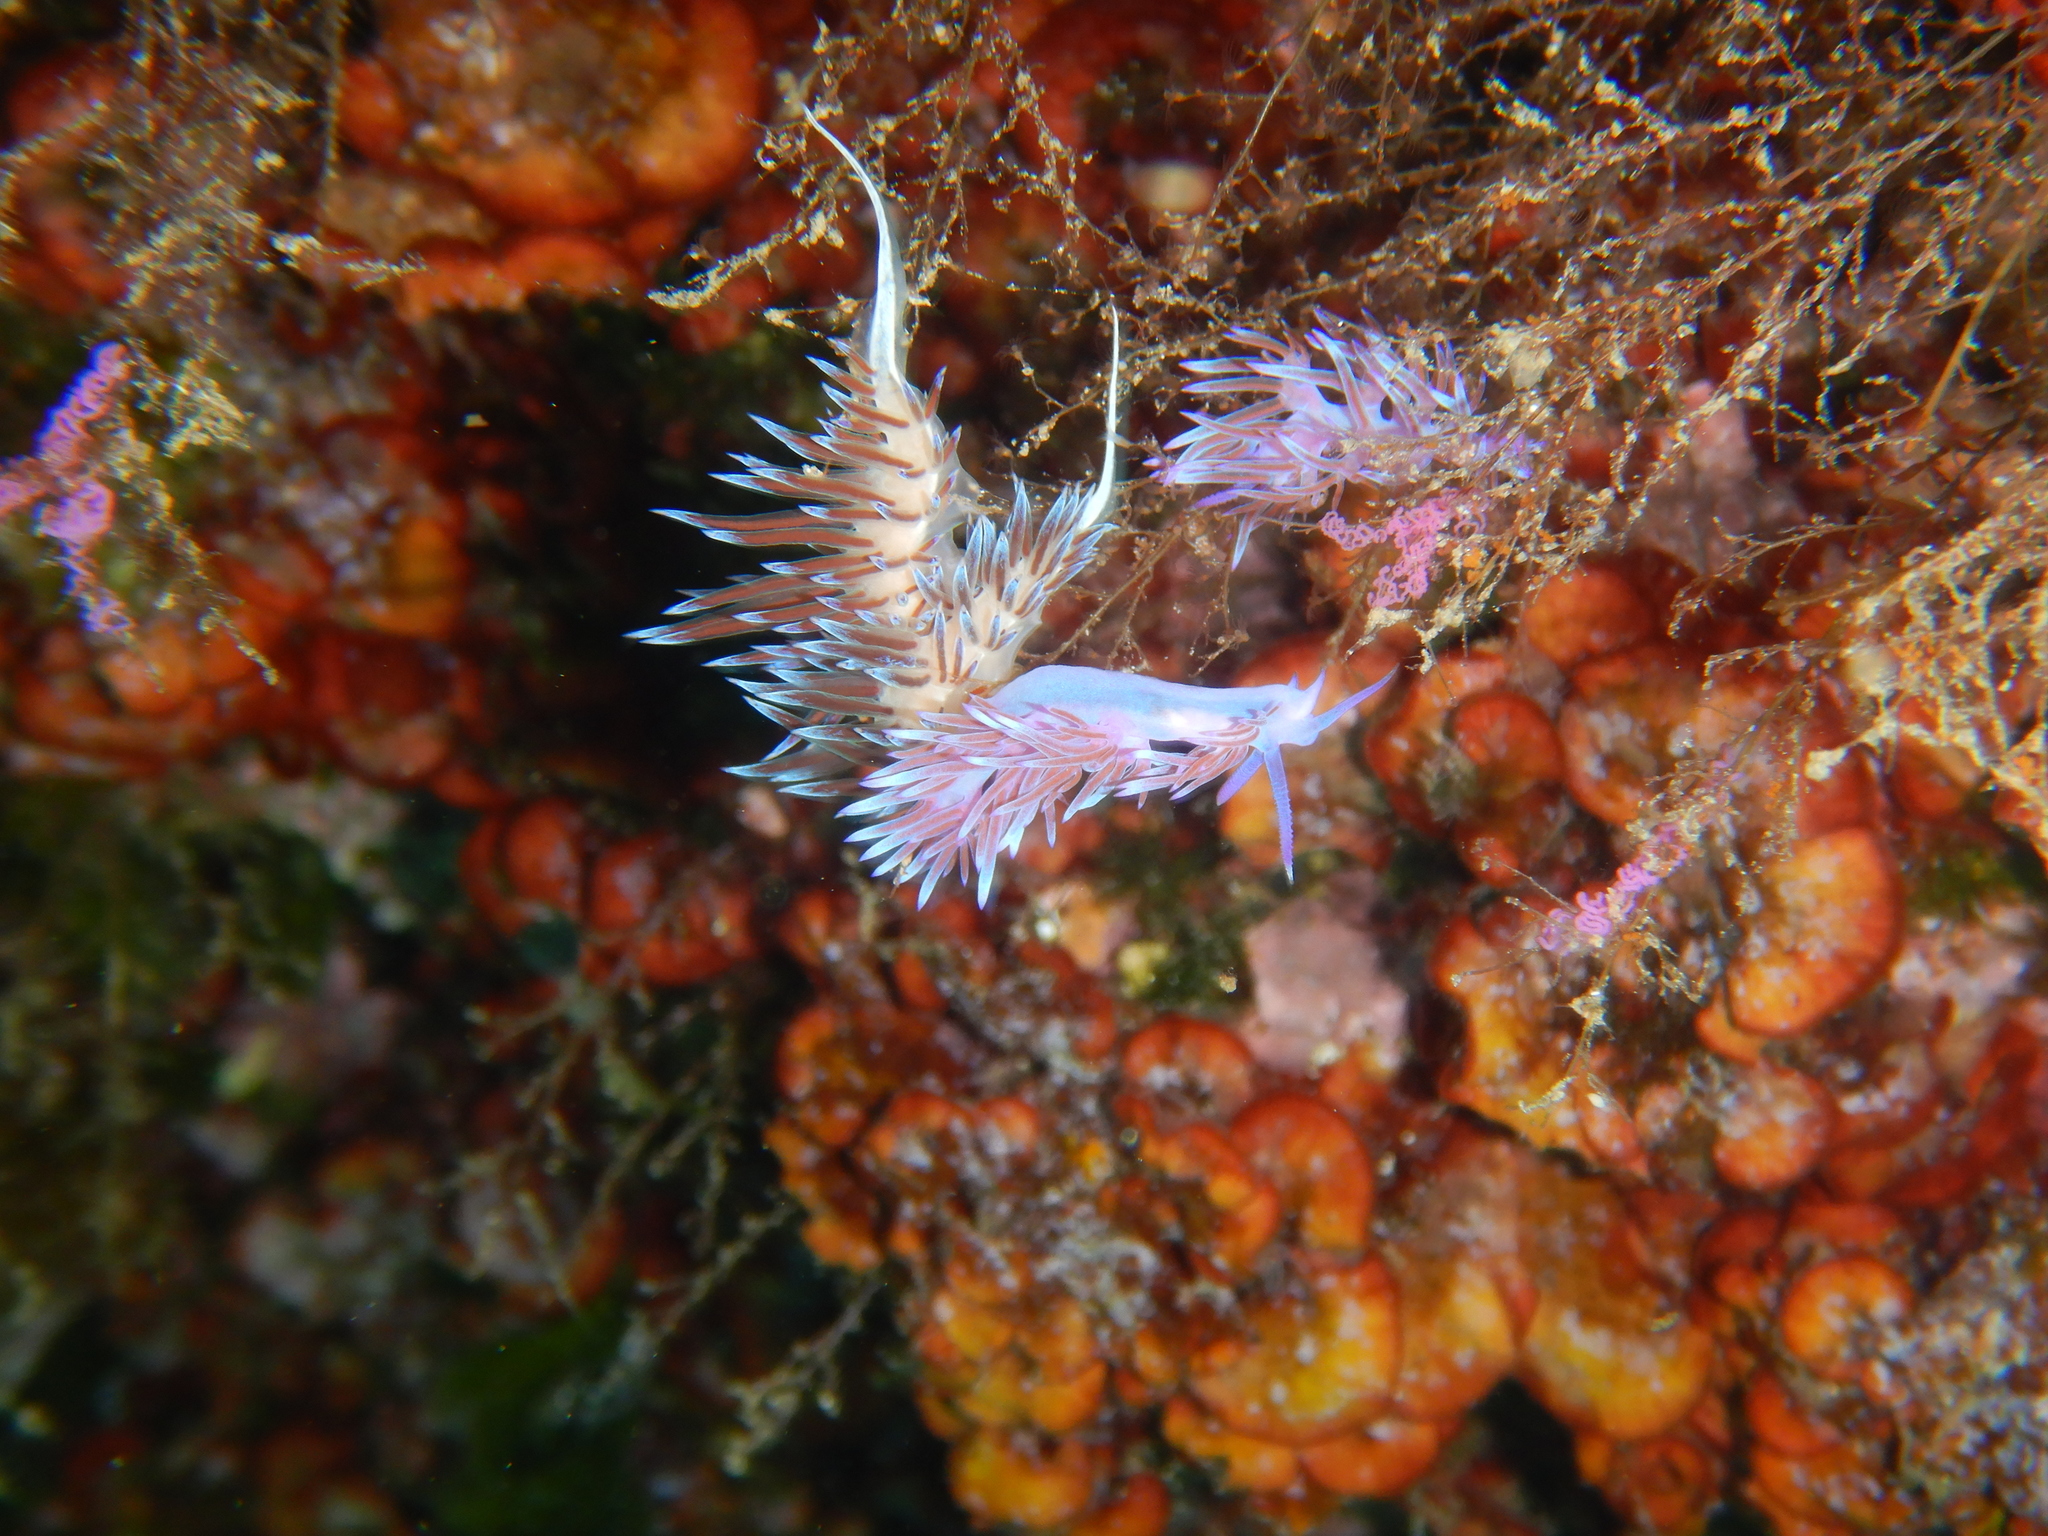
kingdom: Animalia
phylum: Mollusca
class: Gastropoda
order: Nudibranchia
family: Facelinidae
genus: Cratena
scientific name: Cratena peregrina
